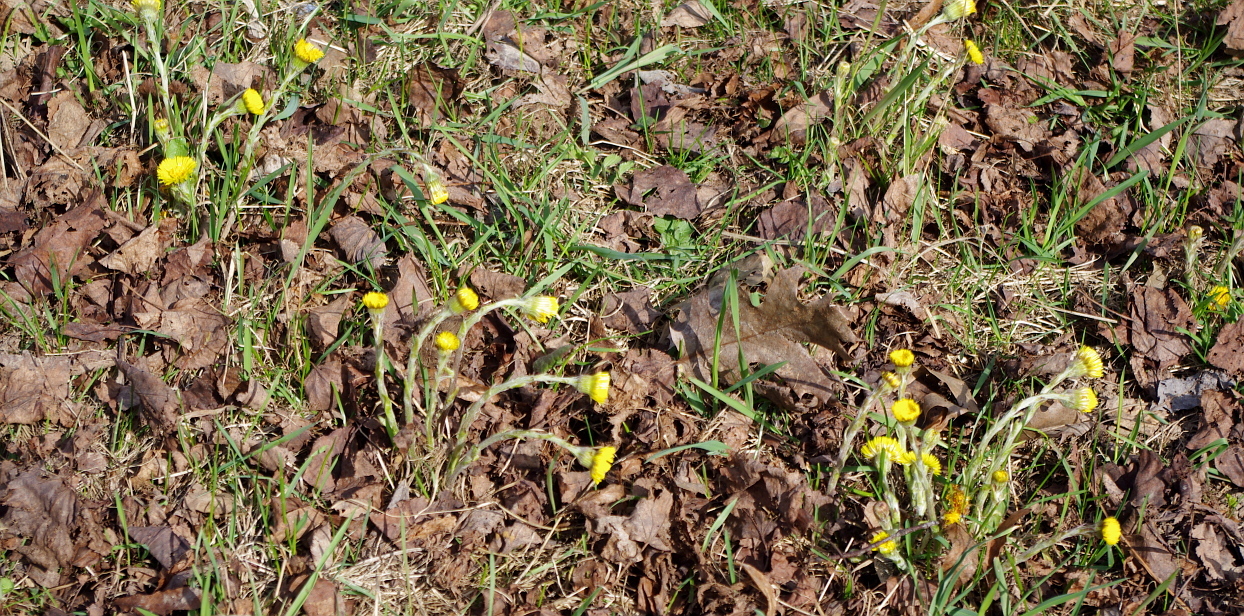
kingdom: Plantae
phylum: Tracheophyta
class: Magnoliopsida
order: Asterales
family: Asteraceae
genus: Tussilago
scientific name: Tussilago farfara
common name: Coltsfoot
